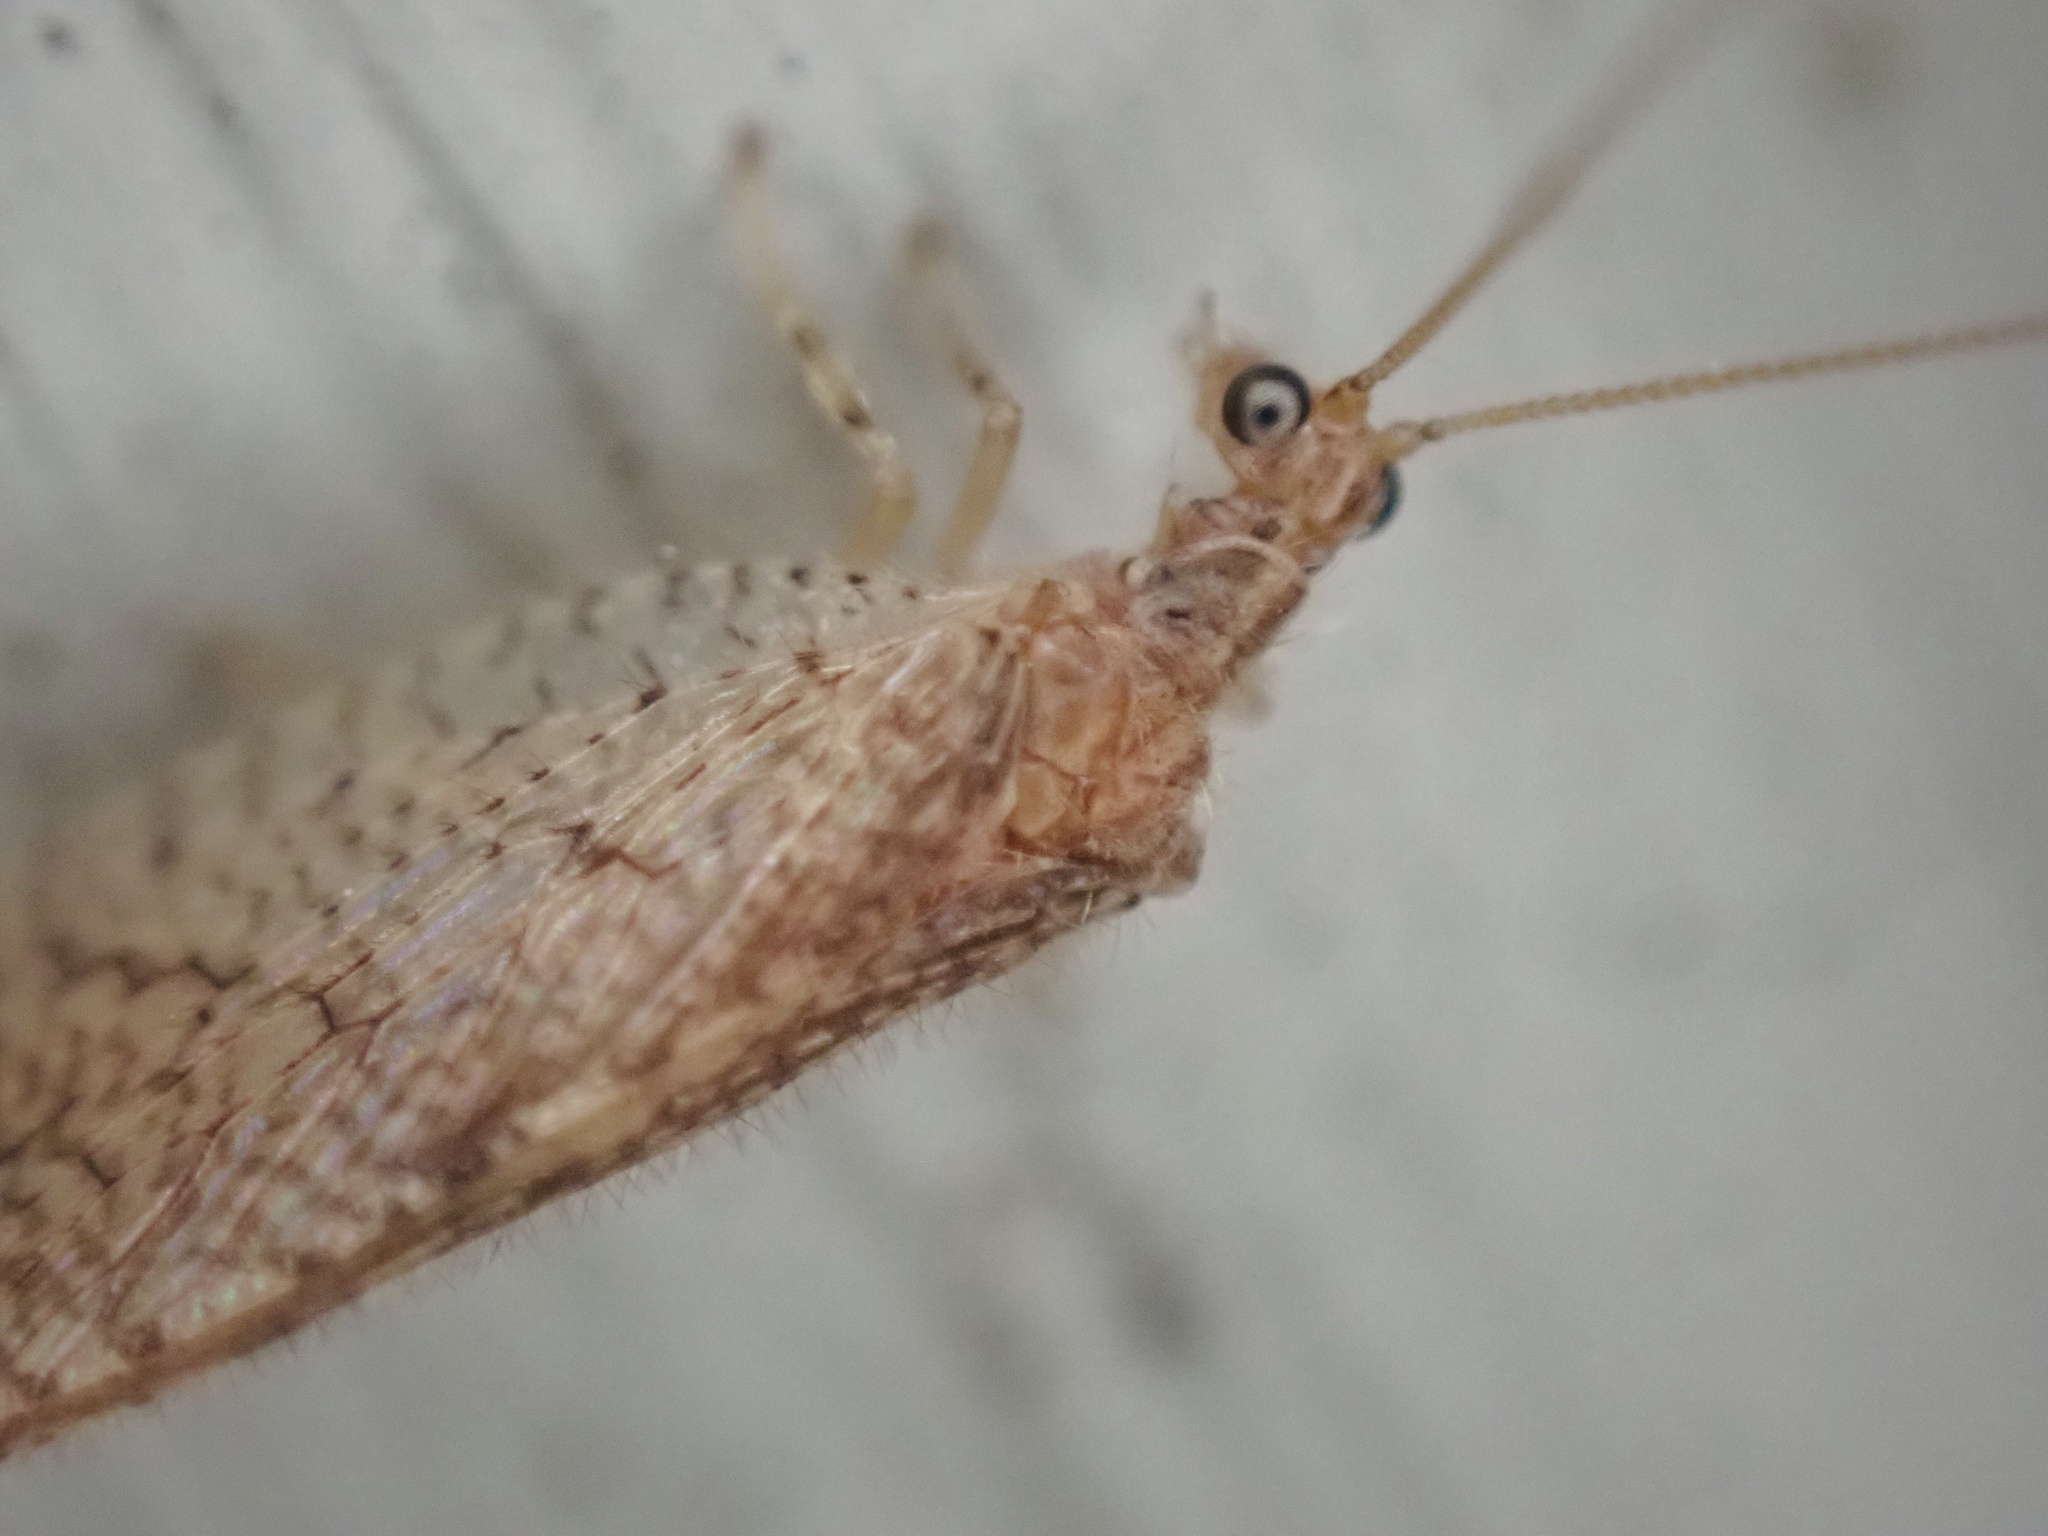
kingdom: Animalia
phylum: Arthropoda
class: Insecta
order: Neuroptera
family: Hemerobiidae
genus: Micromus
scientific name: Micromus posticus
